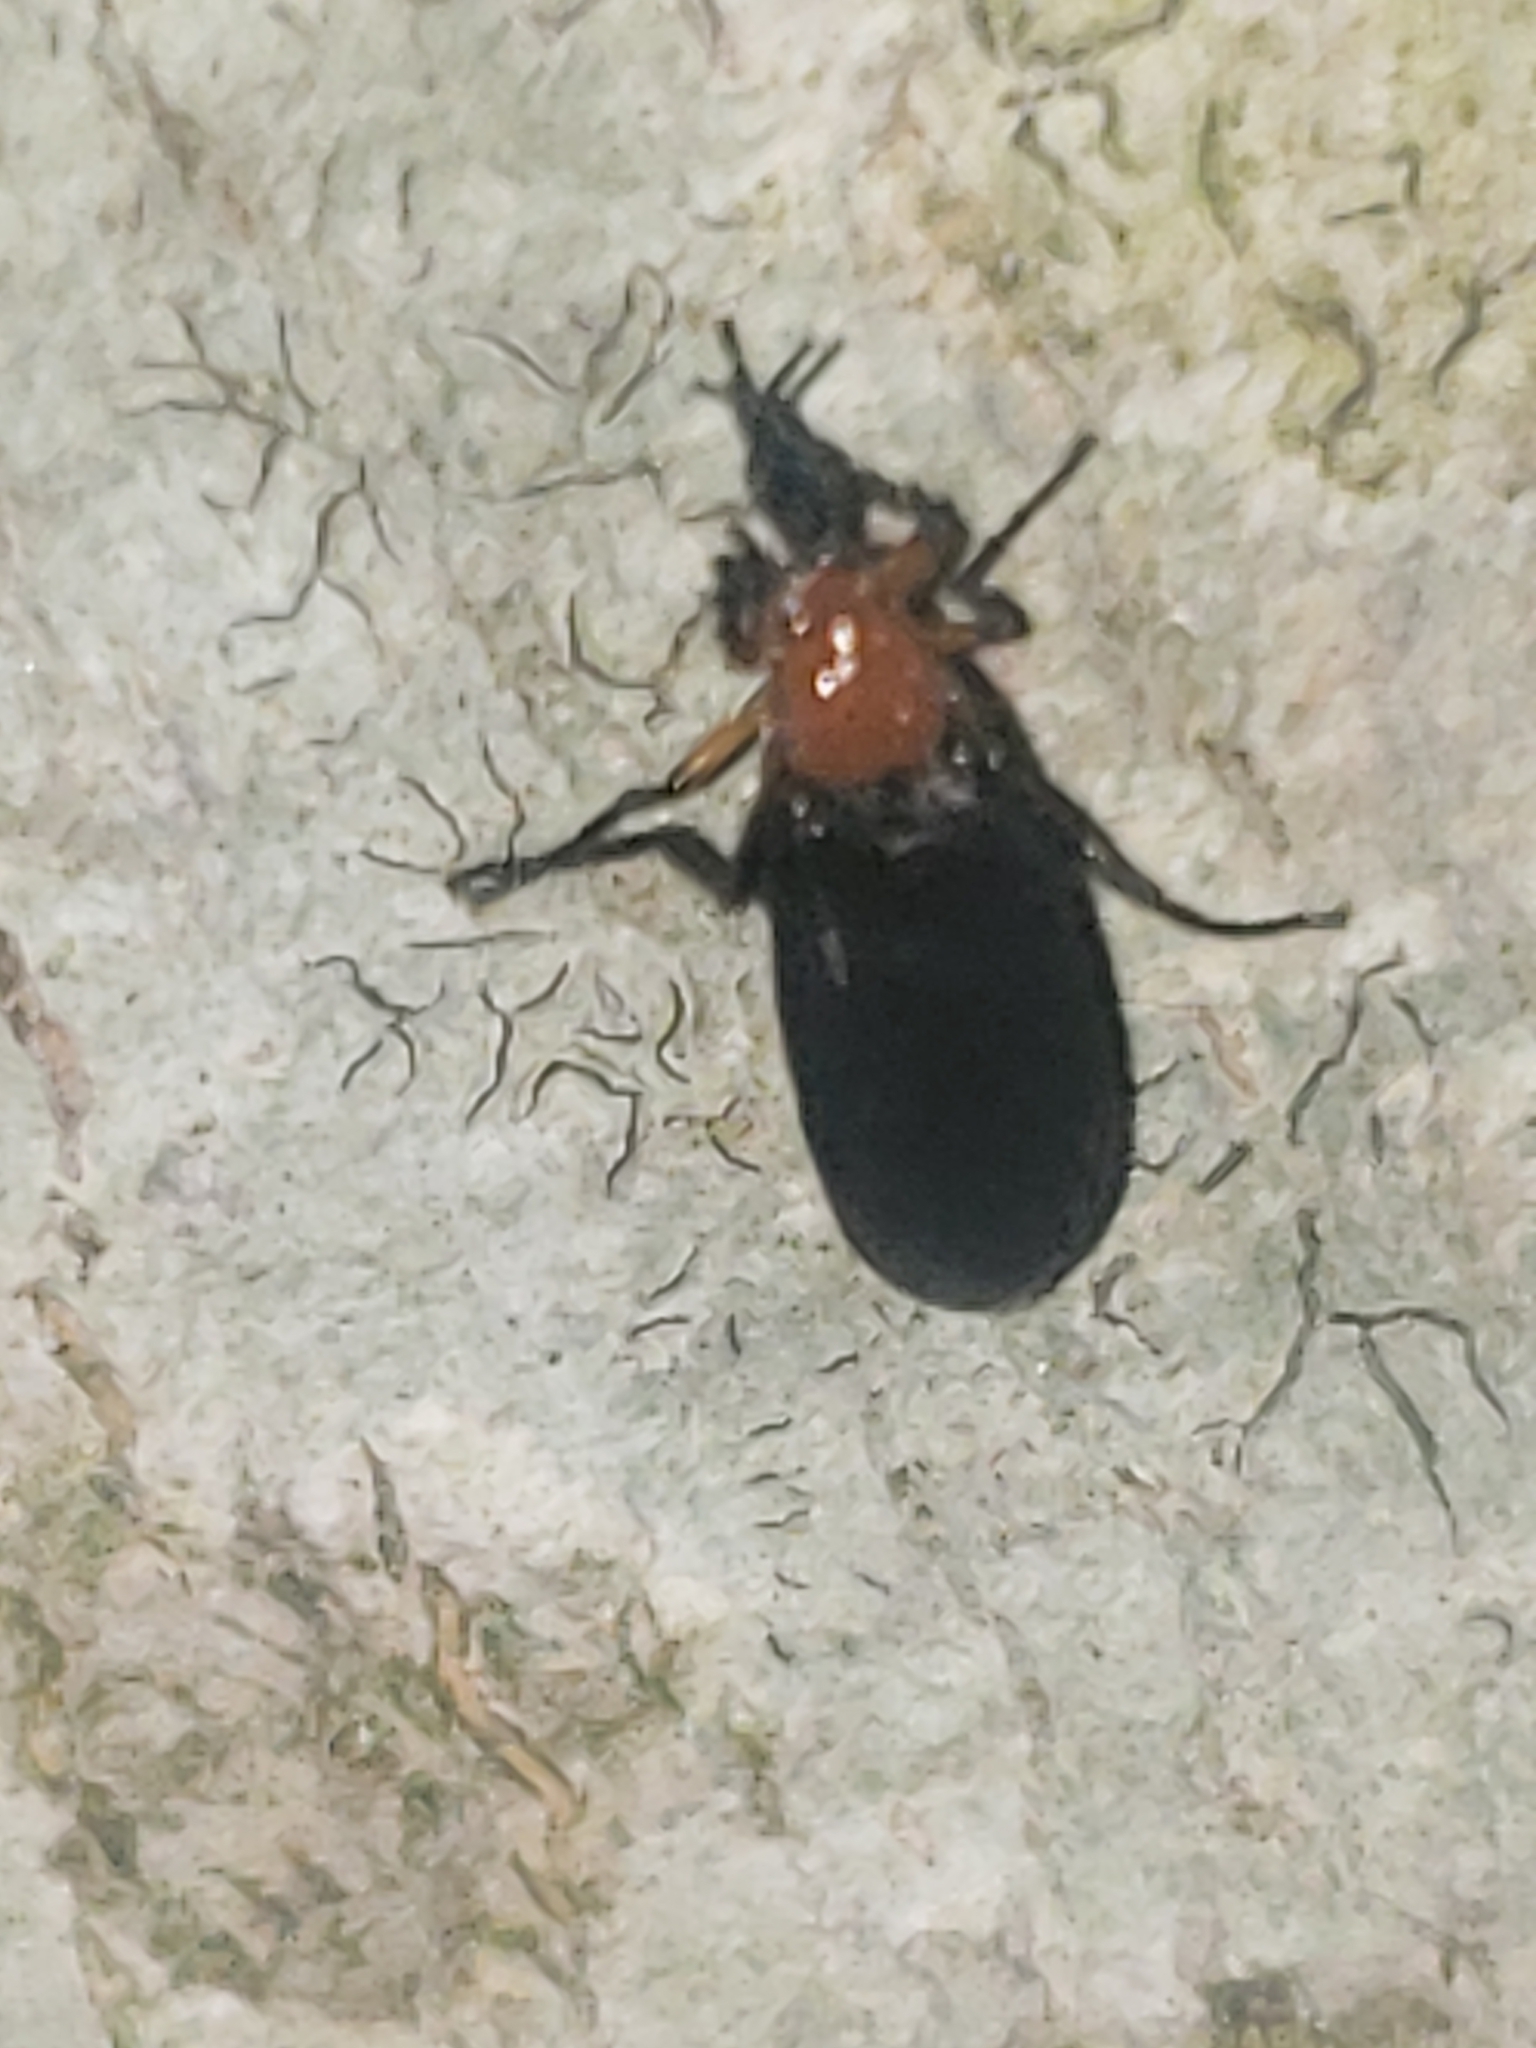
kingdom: Animalia
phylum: Arthropoda
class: Insecta
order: Diptera
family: Bibionidae
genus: Dilophus
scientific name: Dilophus spinipes
